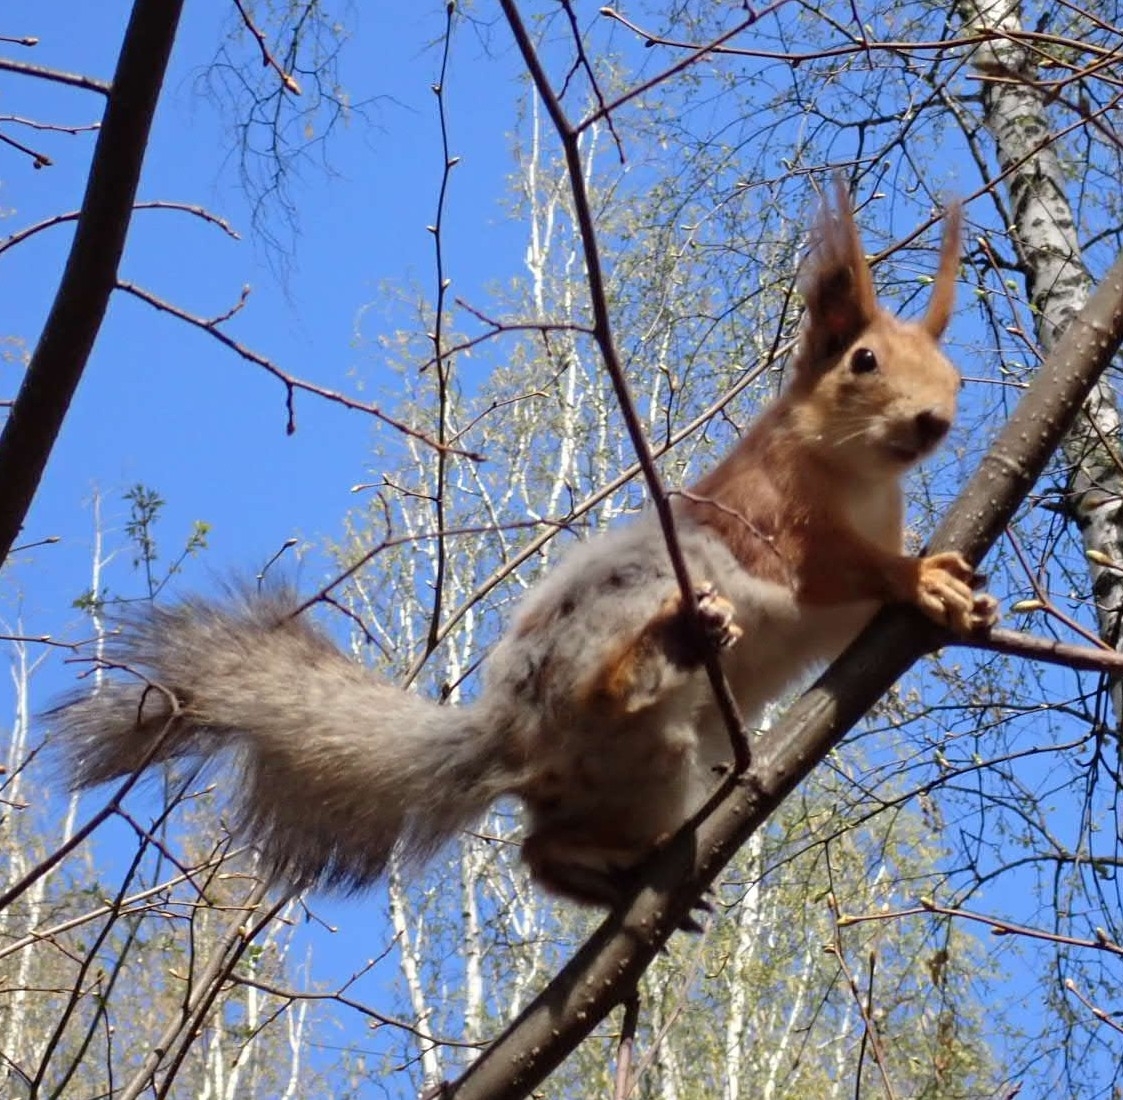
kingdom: Animalia
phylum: Chordata
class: Mammalia
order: Rodentia
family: Sciuridae
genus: Sciurus
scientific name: Sciurus vulgaris
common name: Eurasian red squirrel
